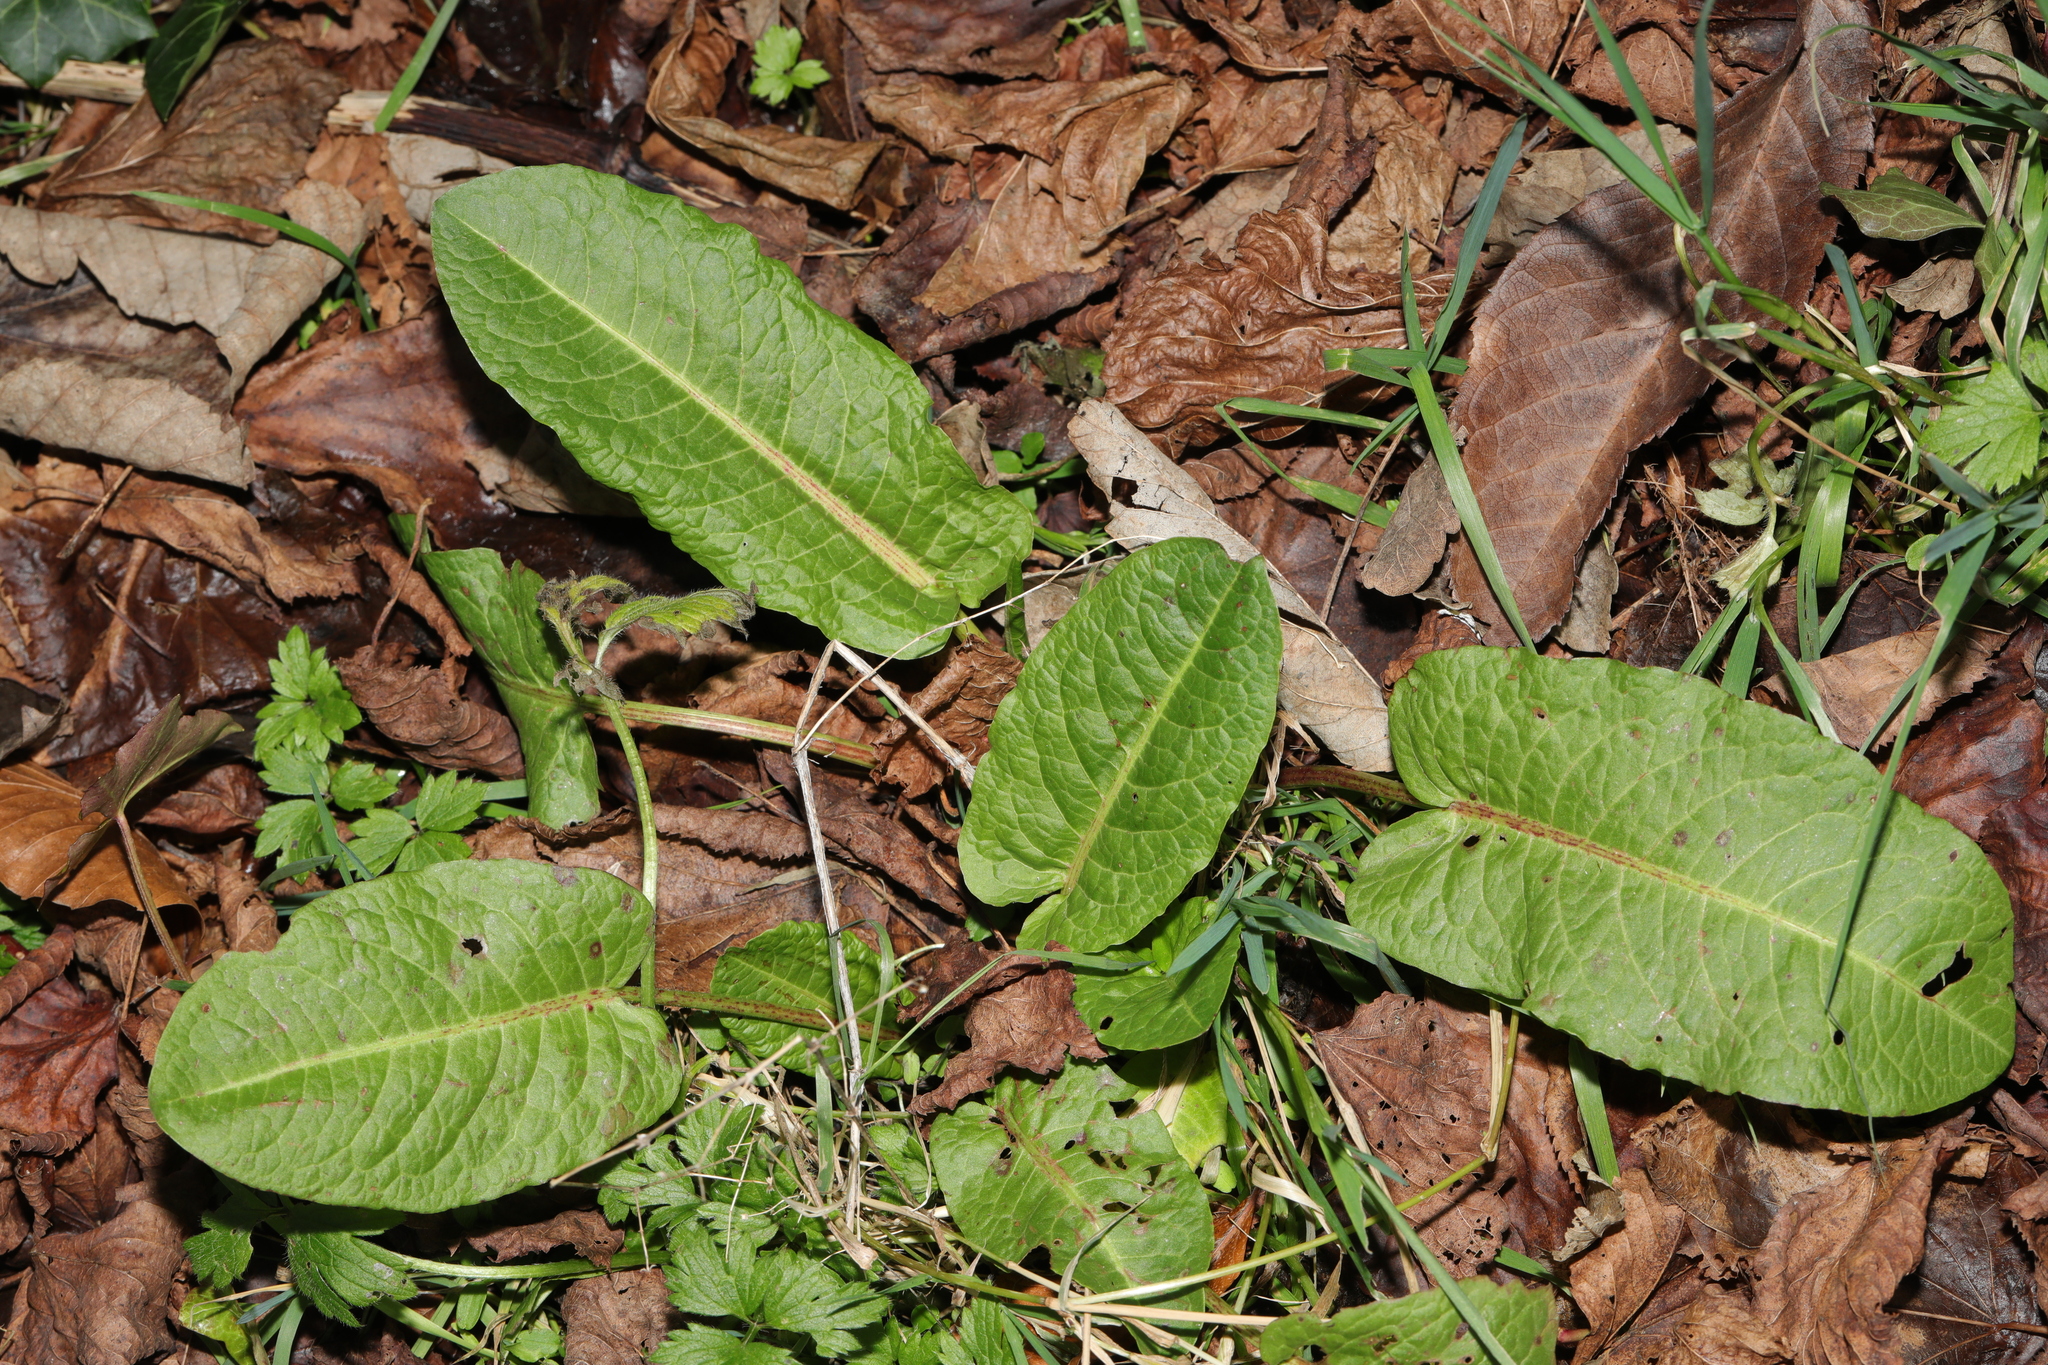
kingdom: Plantae
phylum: Tracheophyta
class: Magnoliopsida
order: Caryophyllales
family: Polygonaceae
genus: Rumex
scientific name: Rumex obtusifolius
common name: Bitter dock
